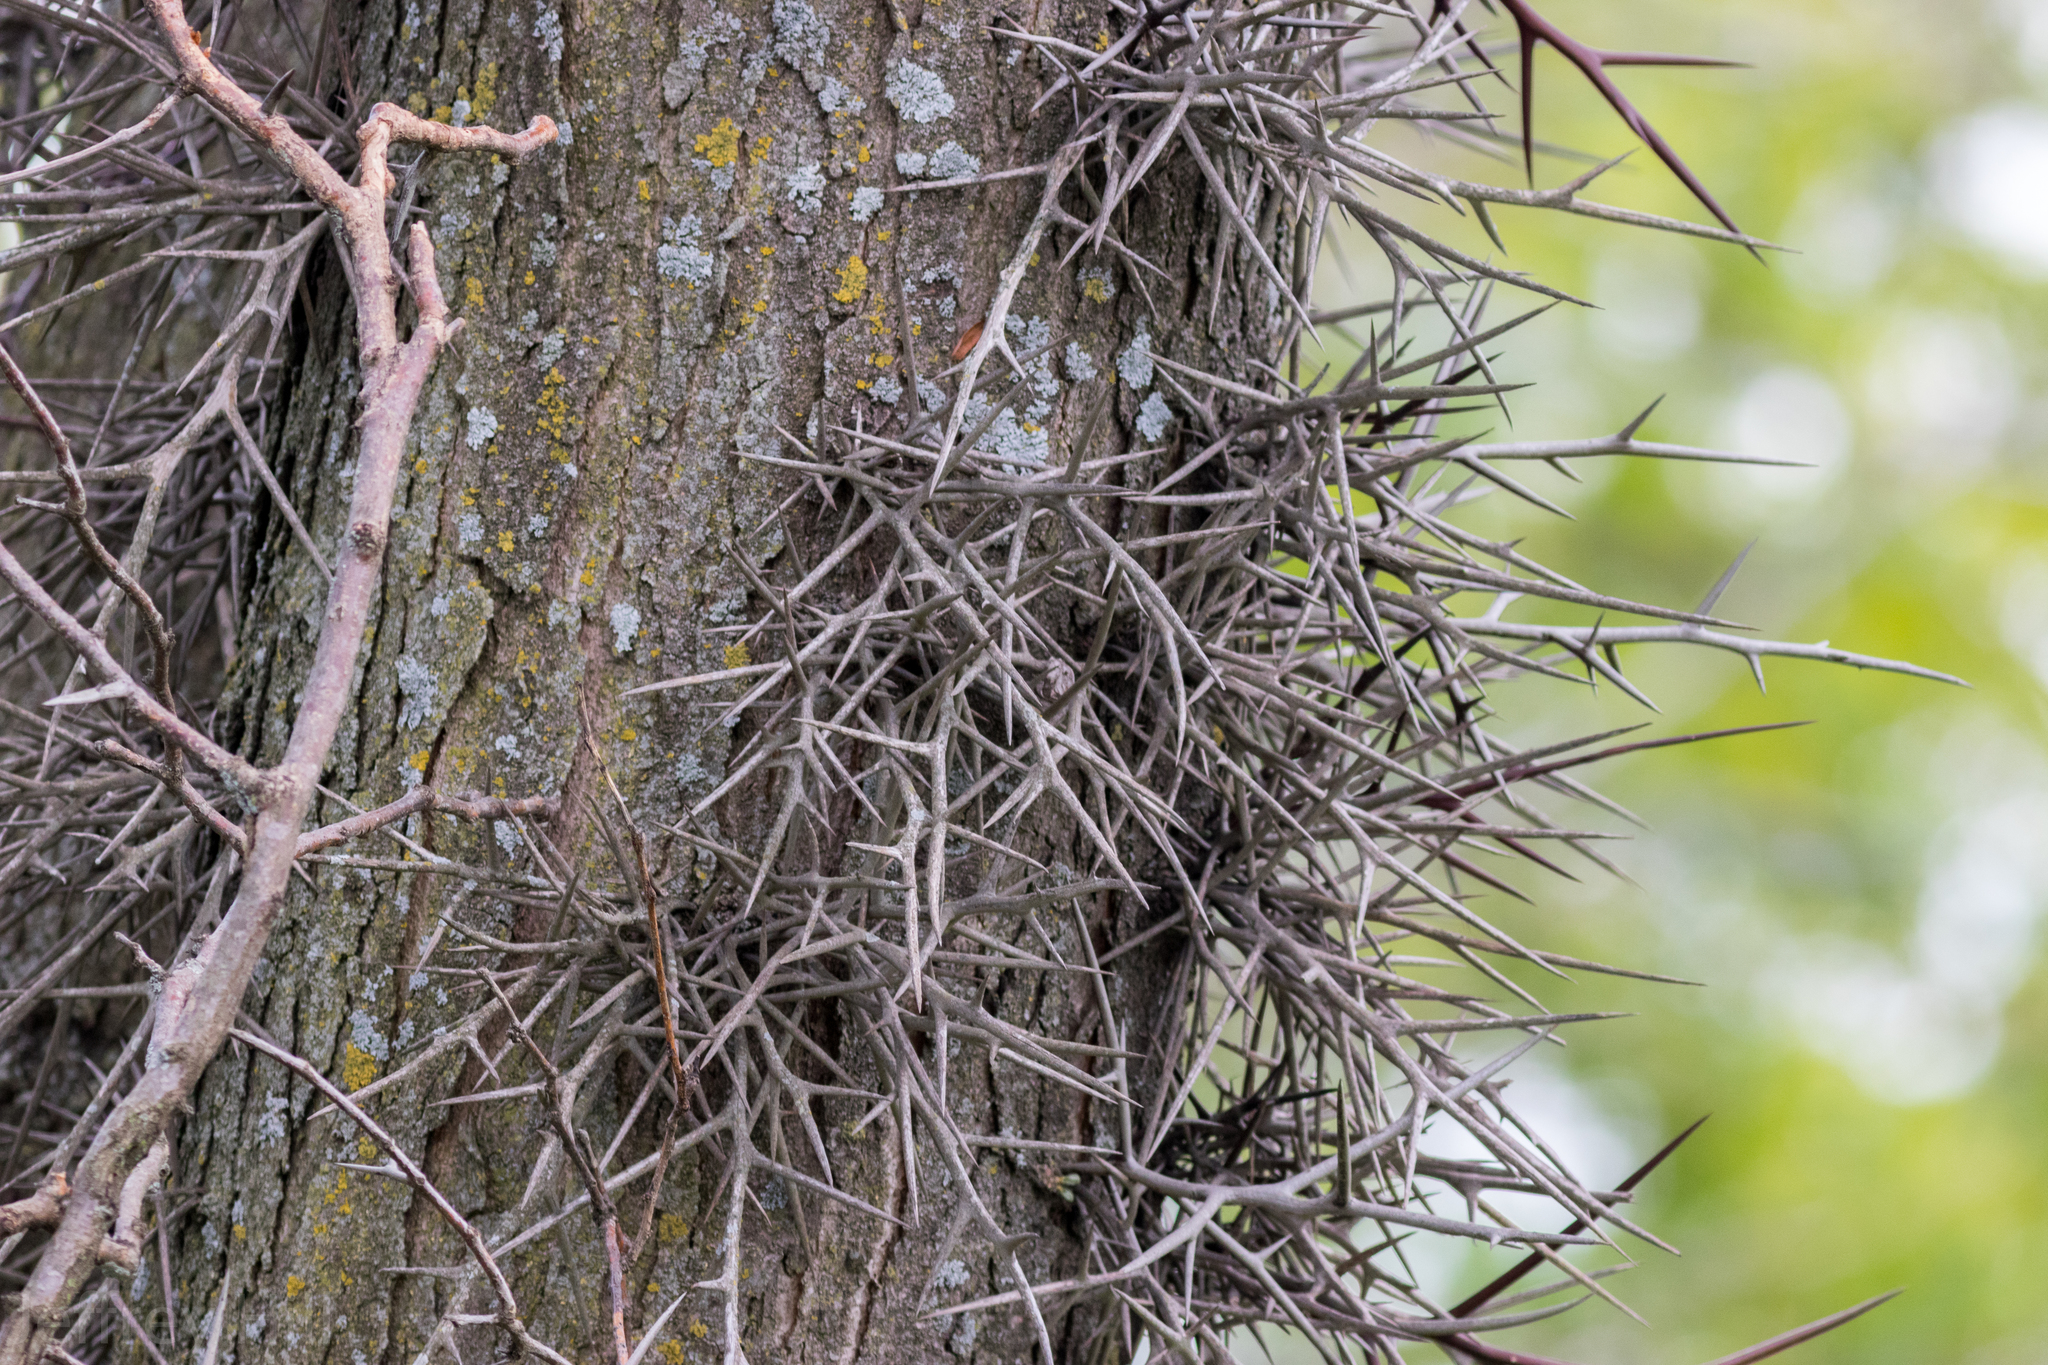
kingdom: Plantae
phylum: Tracheophyta
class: Magnoliopsida
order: Fabales
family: Fabaceae
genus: Gleditsia
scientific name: Gleditsia triacanthos
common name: Common honeylocust
